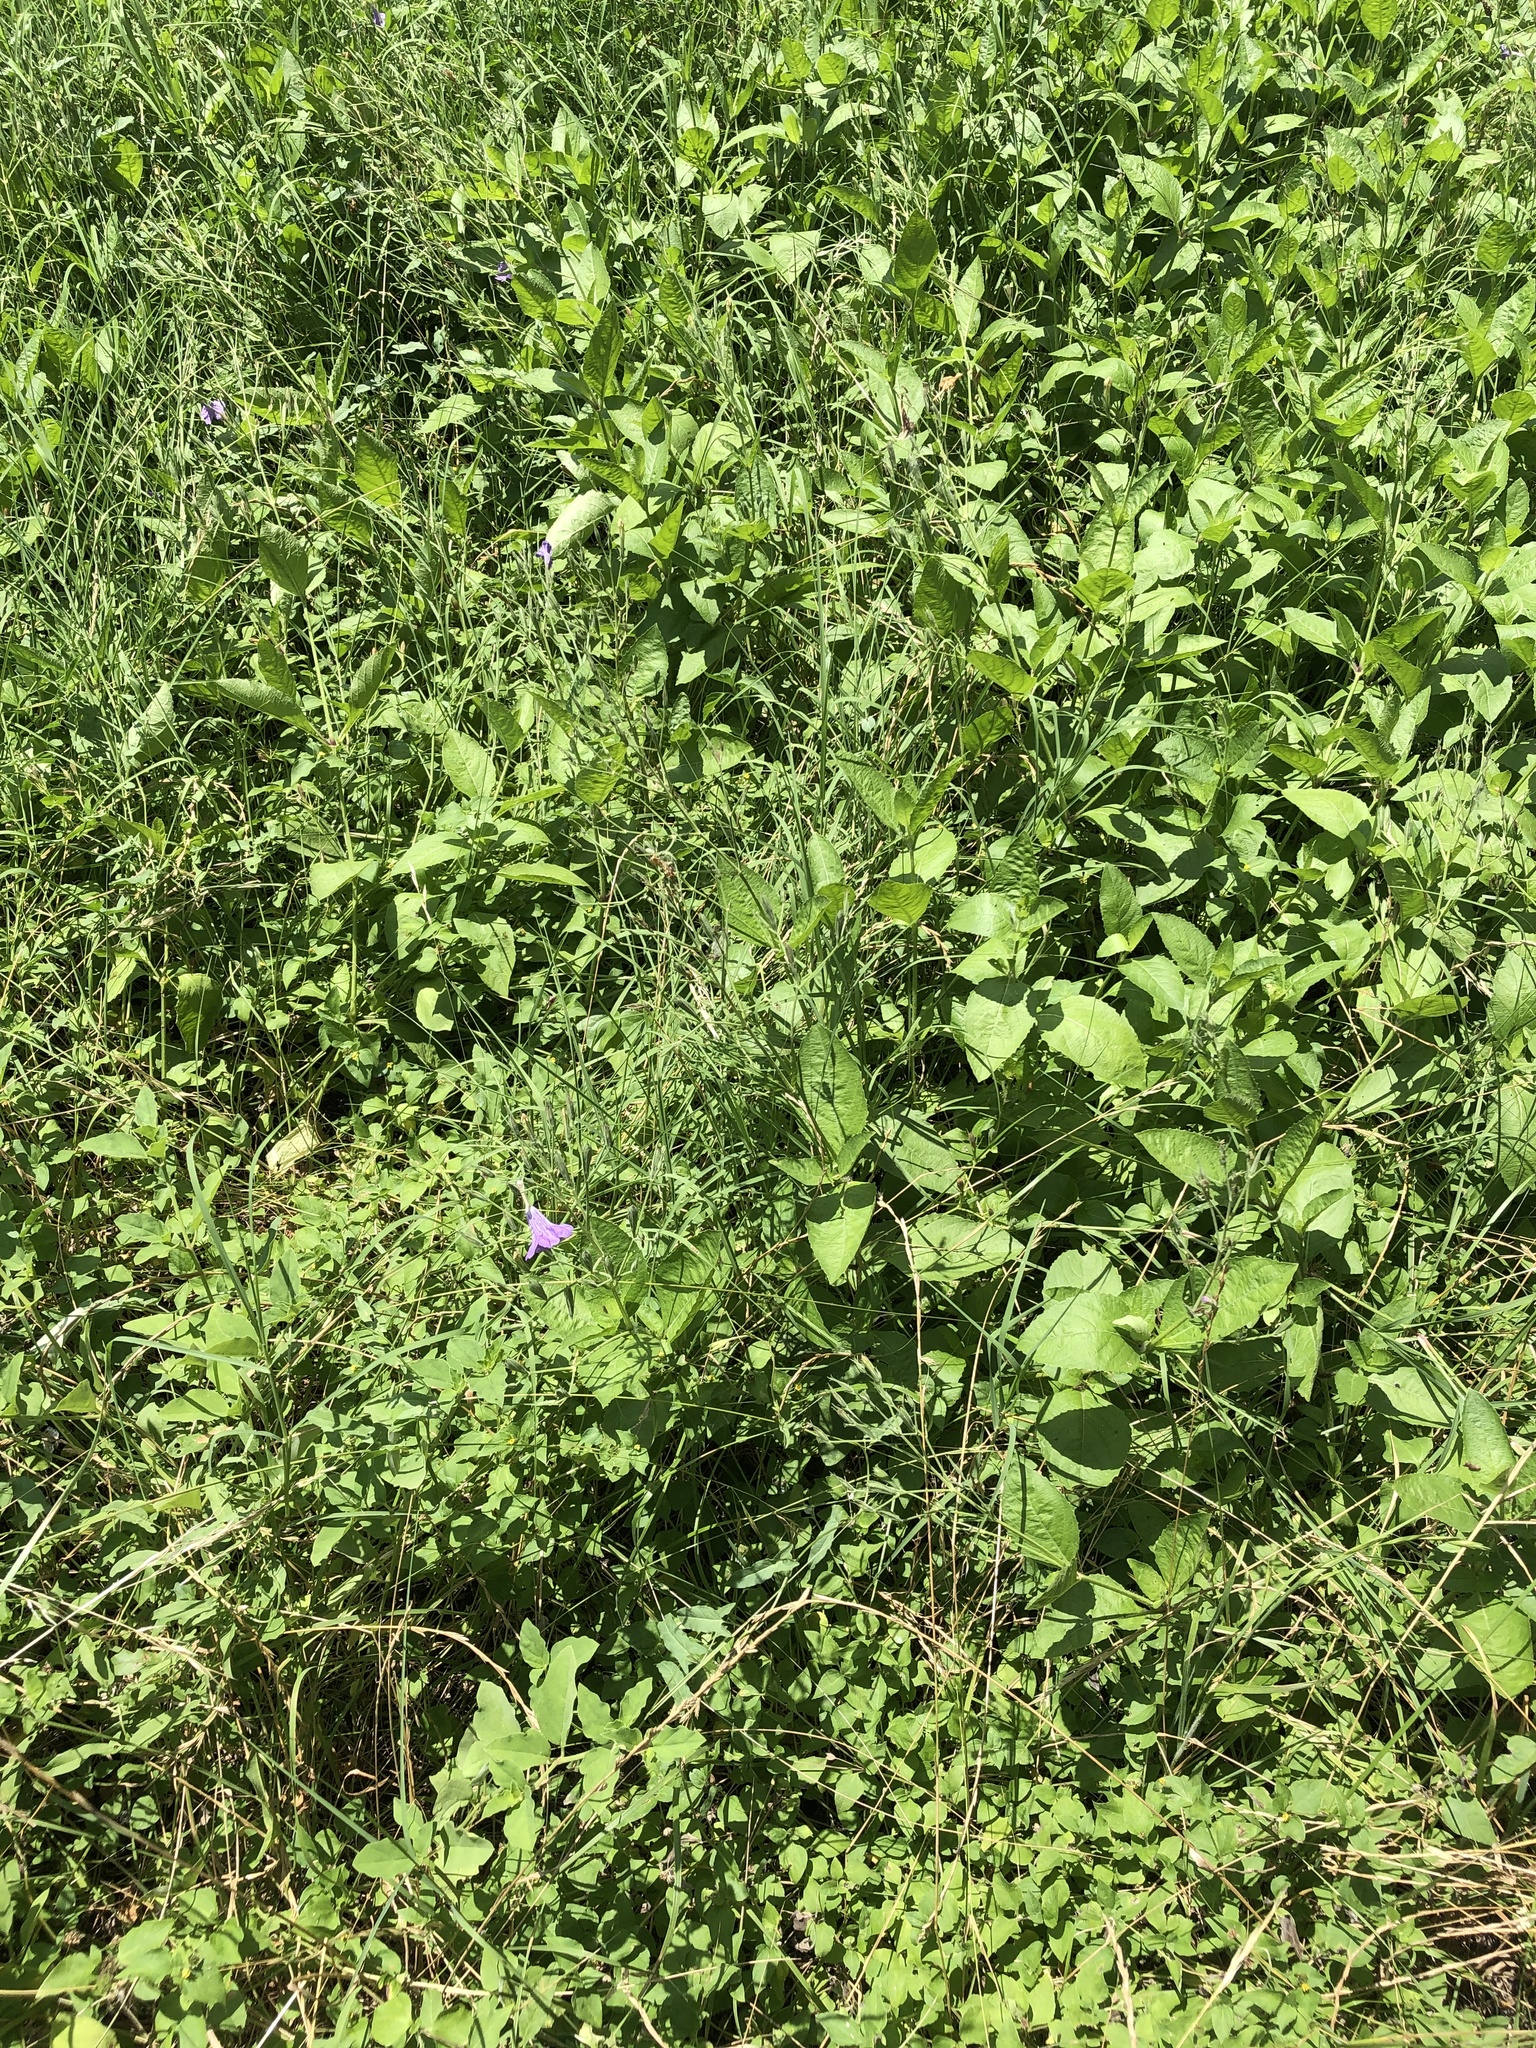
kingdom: Plantae
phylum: Tracheophyta
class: Magnoliopsida
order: Lamiales
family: Acanthaceae
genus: Ruellia
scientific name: Ruellia ciliatiflora
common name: Hairyflower wild petunia
